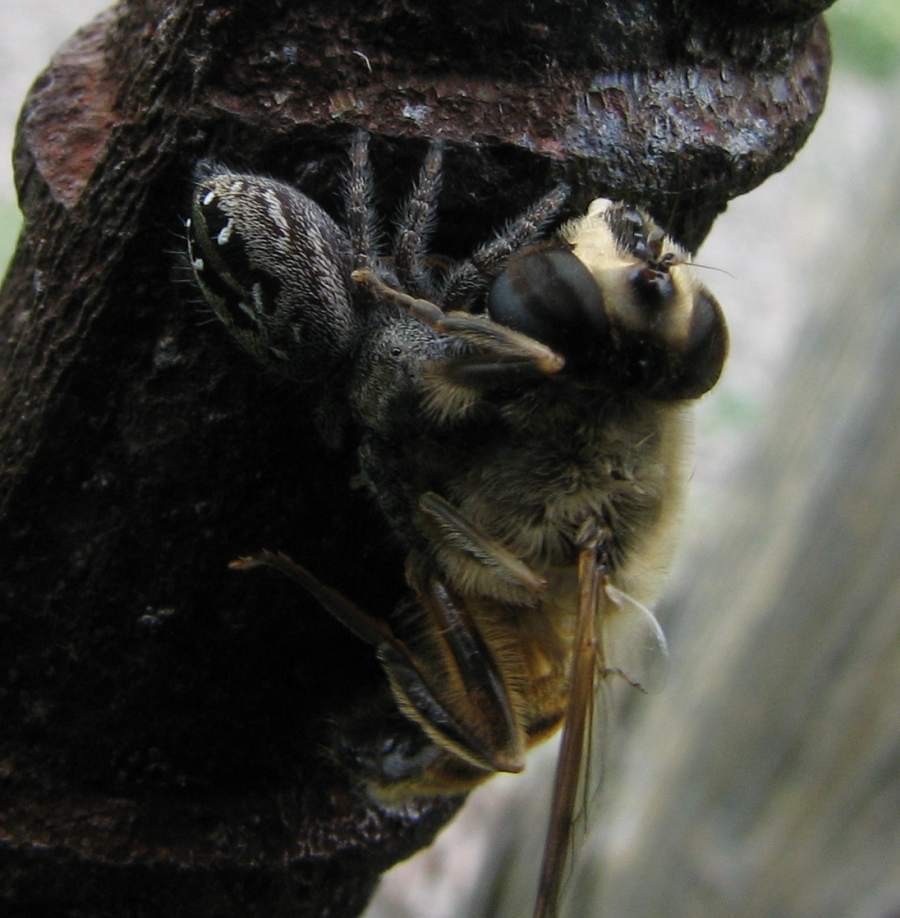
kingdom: Animalia
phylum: Arthropoda
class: Arachnida
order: Araneae
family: Salticidae
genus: Phidippus
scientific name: Phidippus purpuratus
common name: Marbled purple jumping spider
